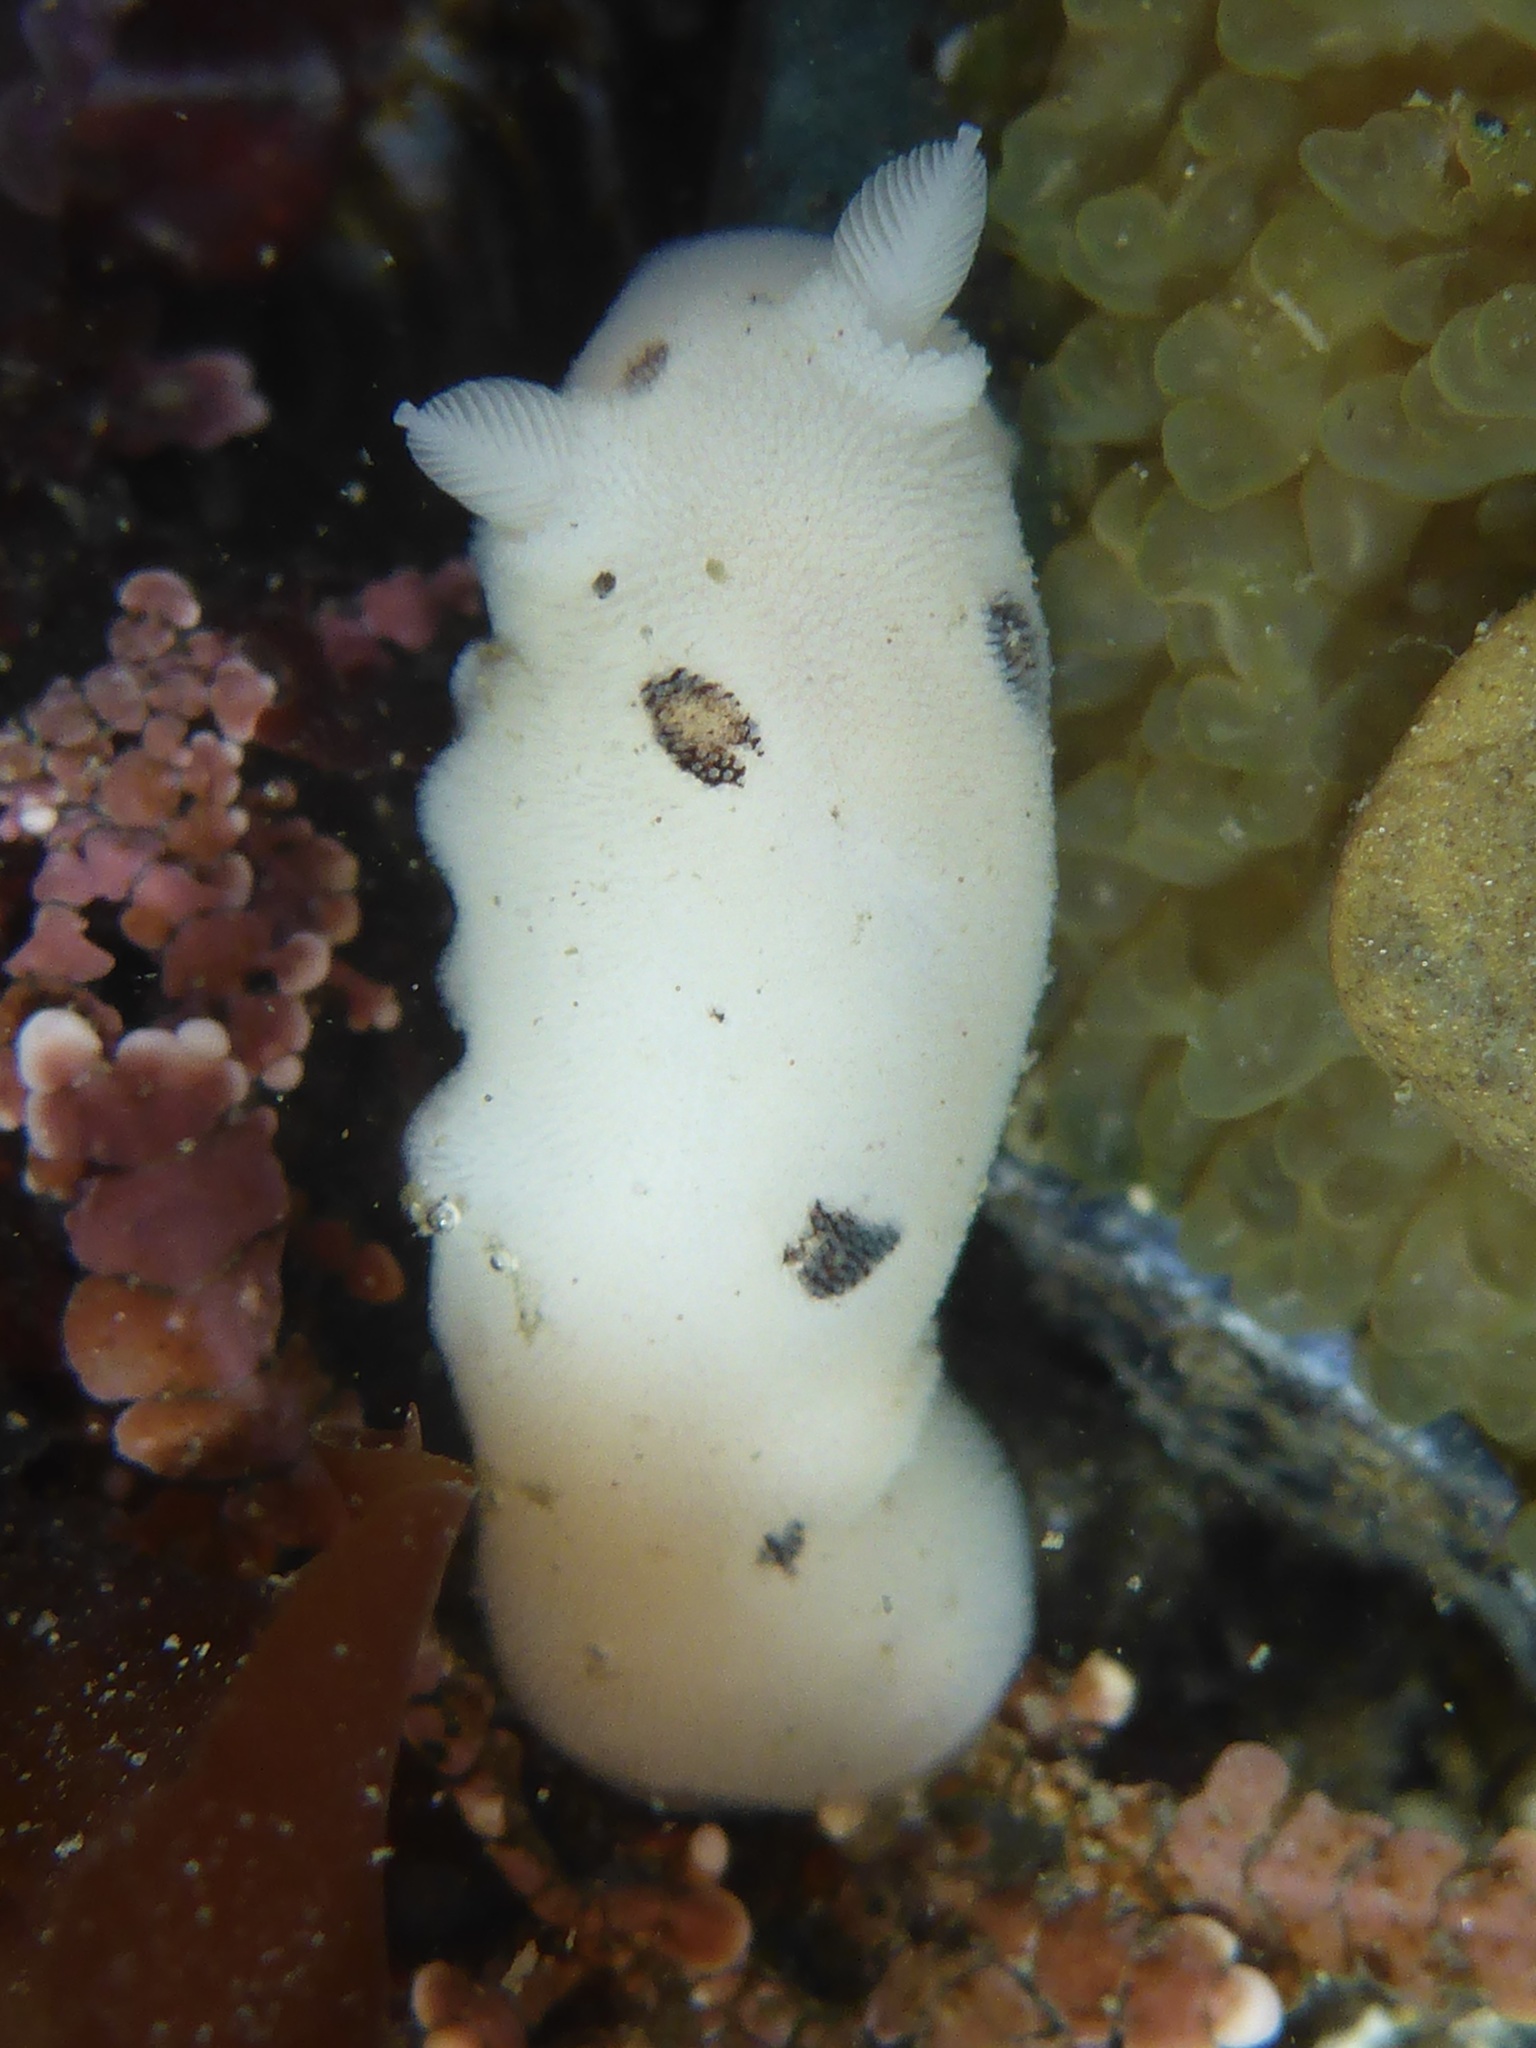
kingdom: Animalia
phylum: Mollusca
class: Gastropoda
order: Nudibranchia
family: Discodorididae
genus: Diaulula
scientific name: Diaulula sandiegensis
